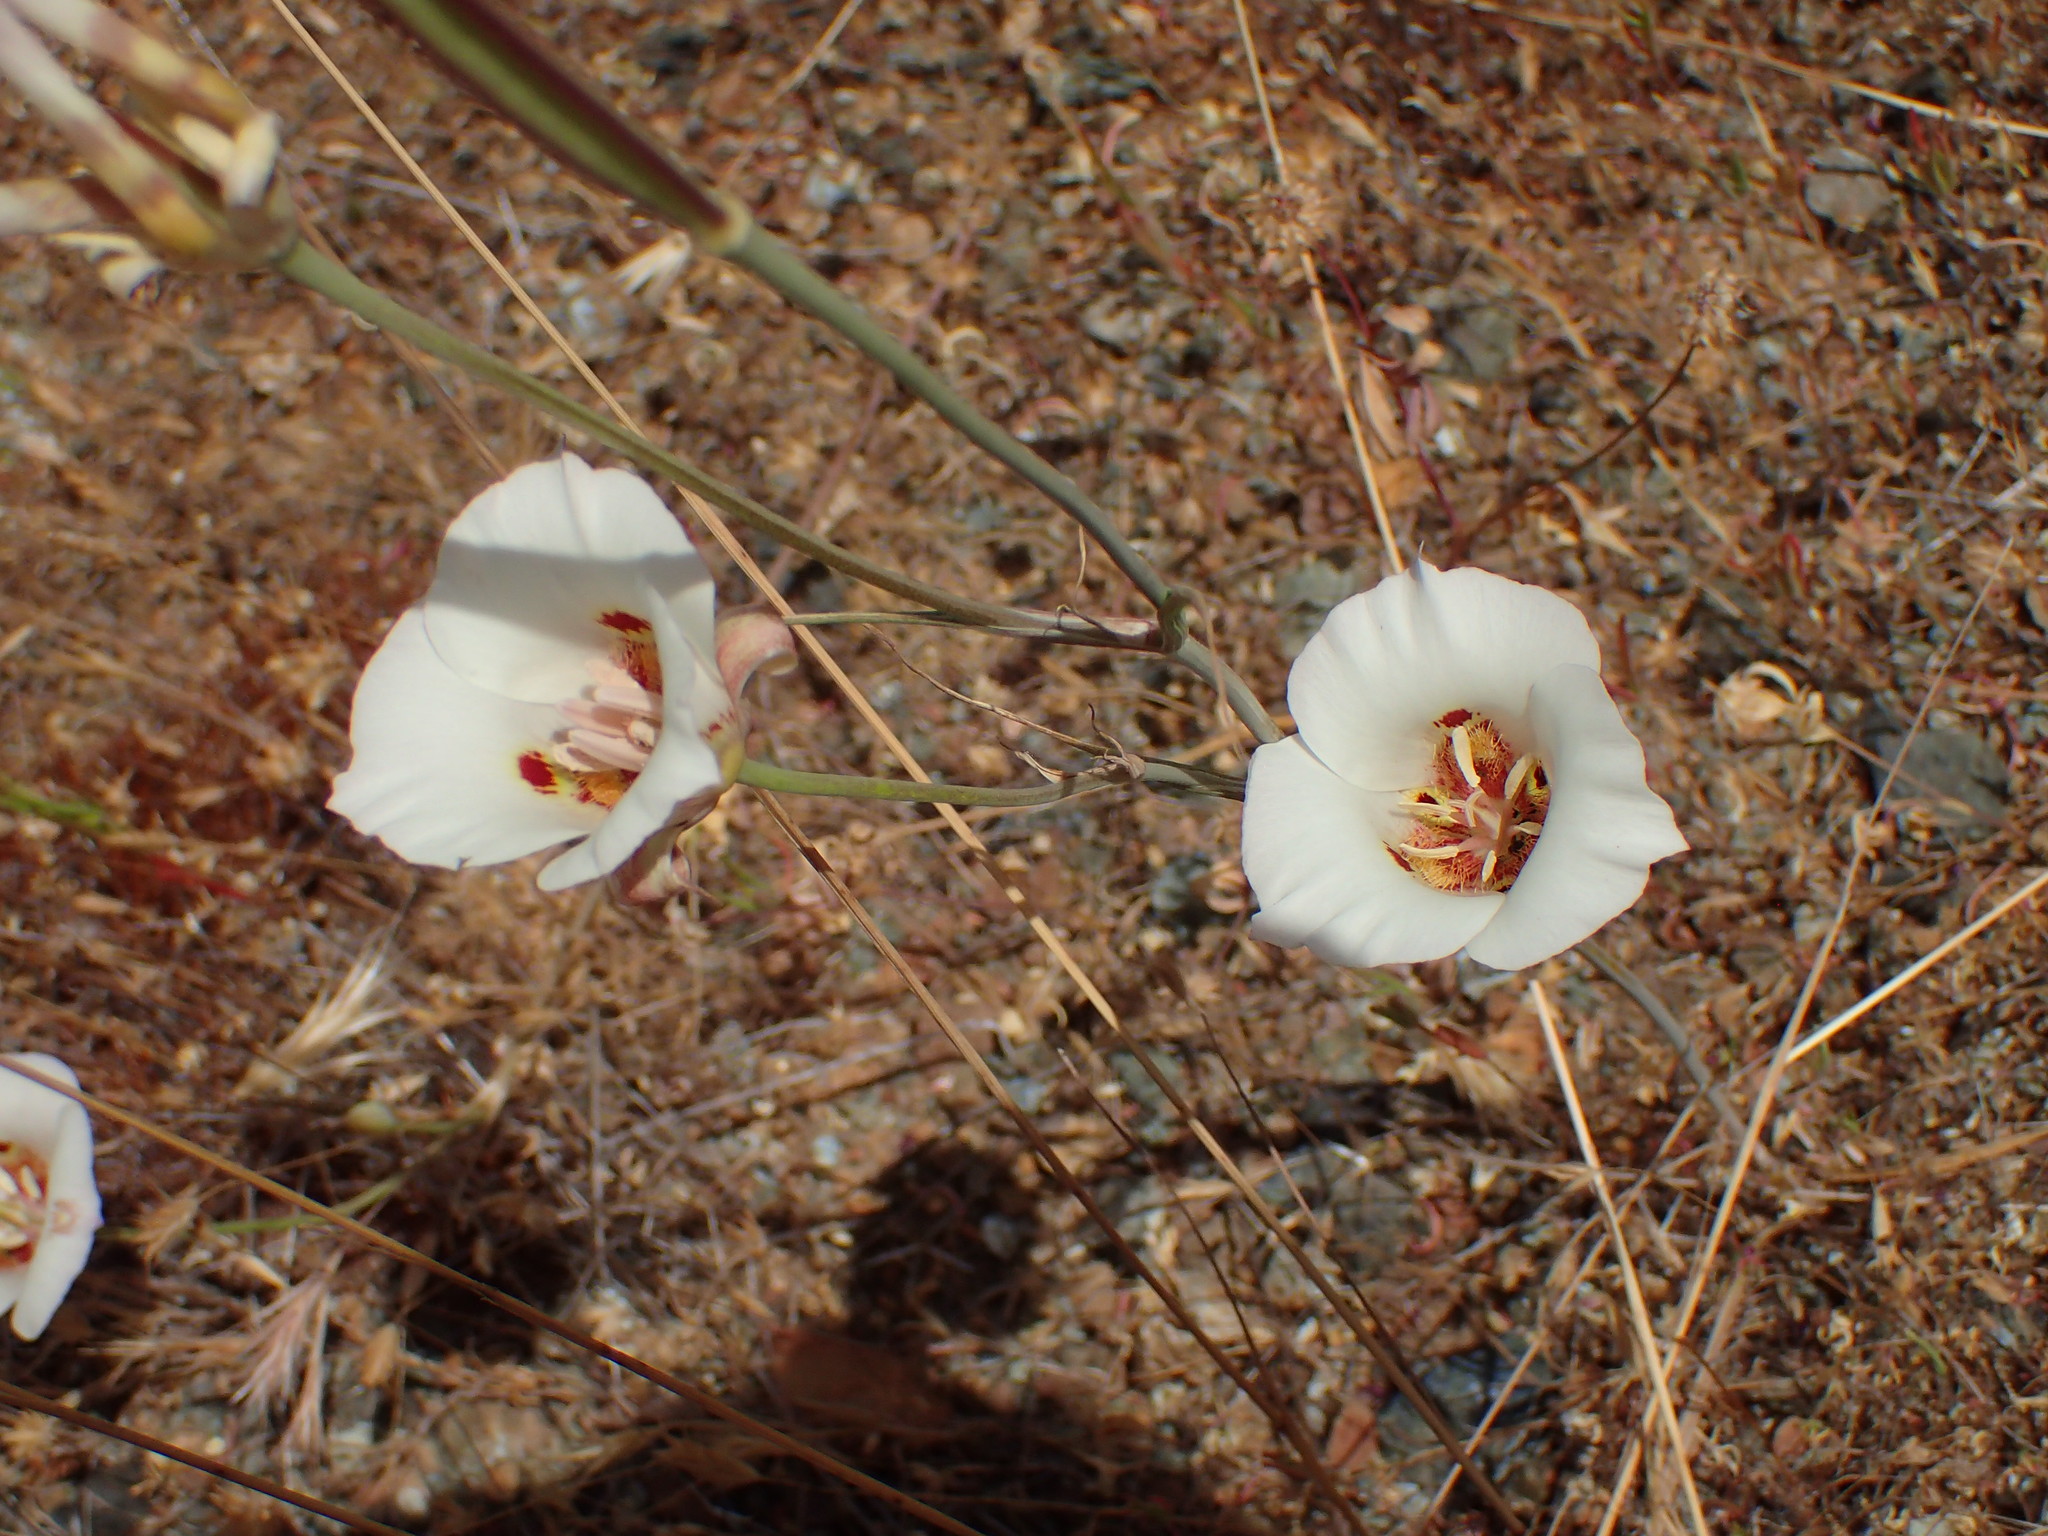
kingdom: Plantae
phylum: Tracheophyta
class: Liliopsida
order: Liliales
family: Liliaceae
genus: Calochortus
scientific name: Calochortus venustus
